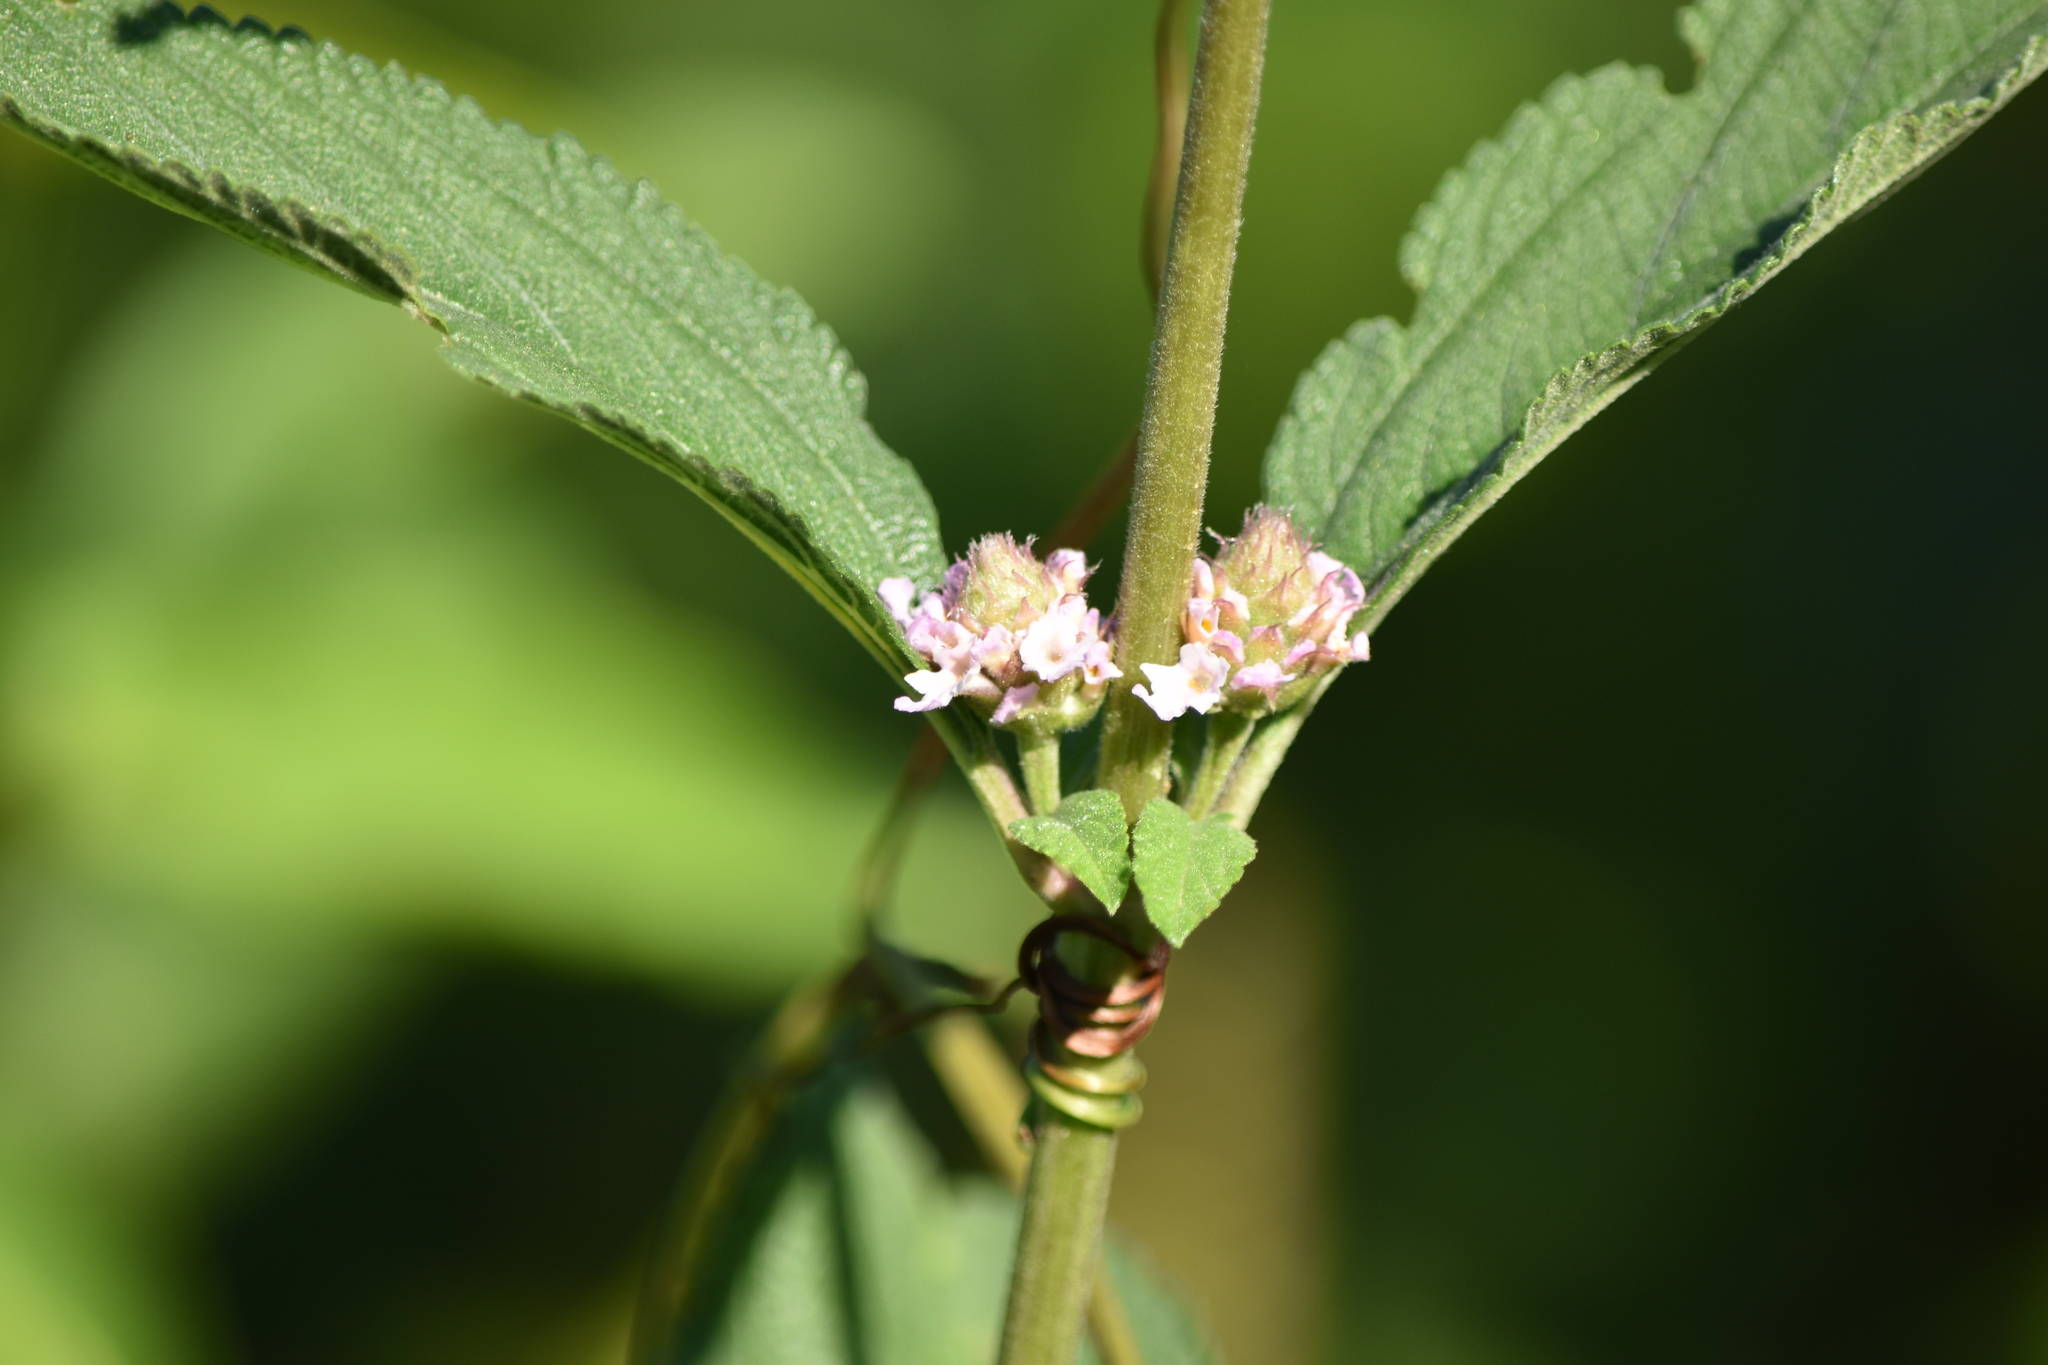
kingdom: Plantae
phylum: Tracheophyta
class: Magnoliopsida
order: Lamiales
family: Verbenaceae
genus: Lippia
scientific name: Lippia alba
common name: Bushy matgrass
